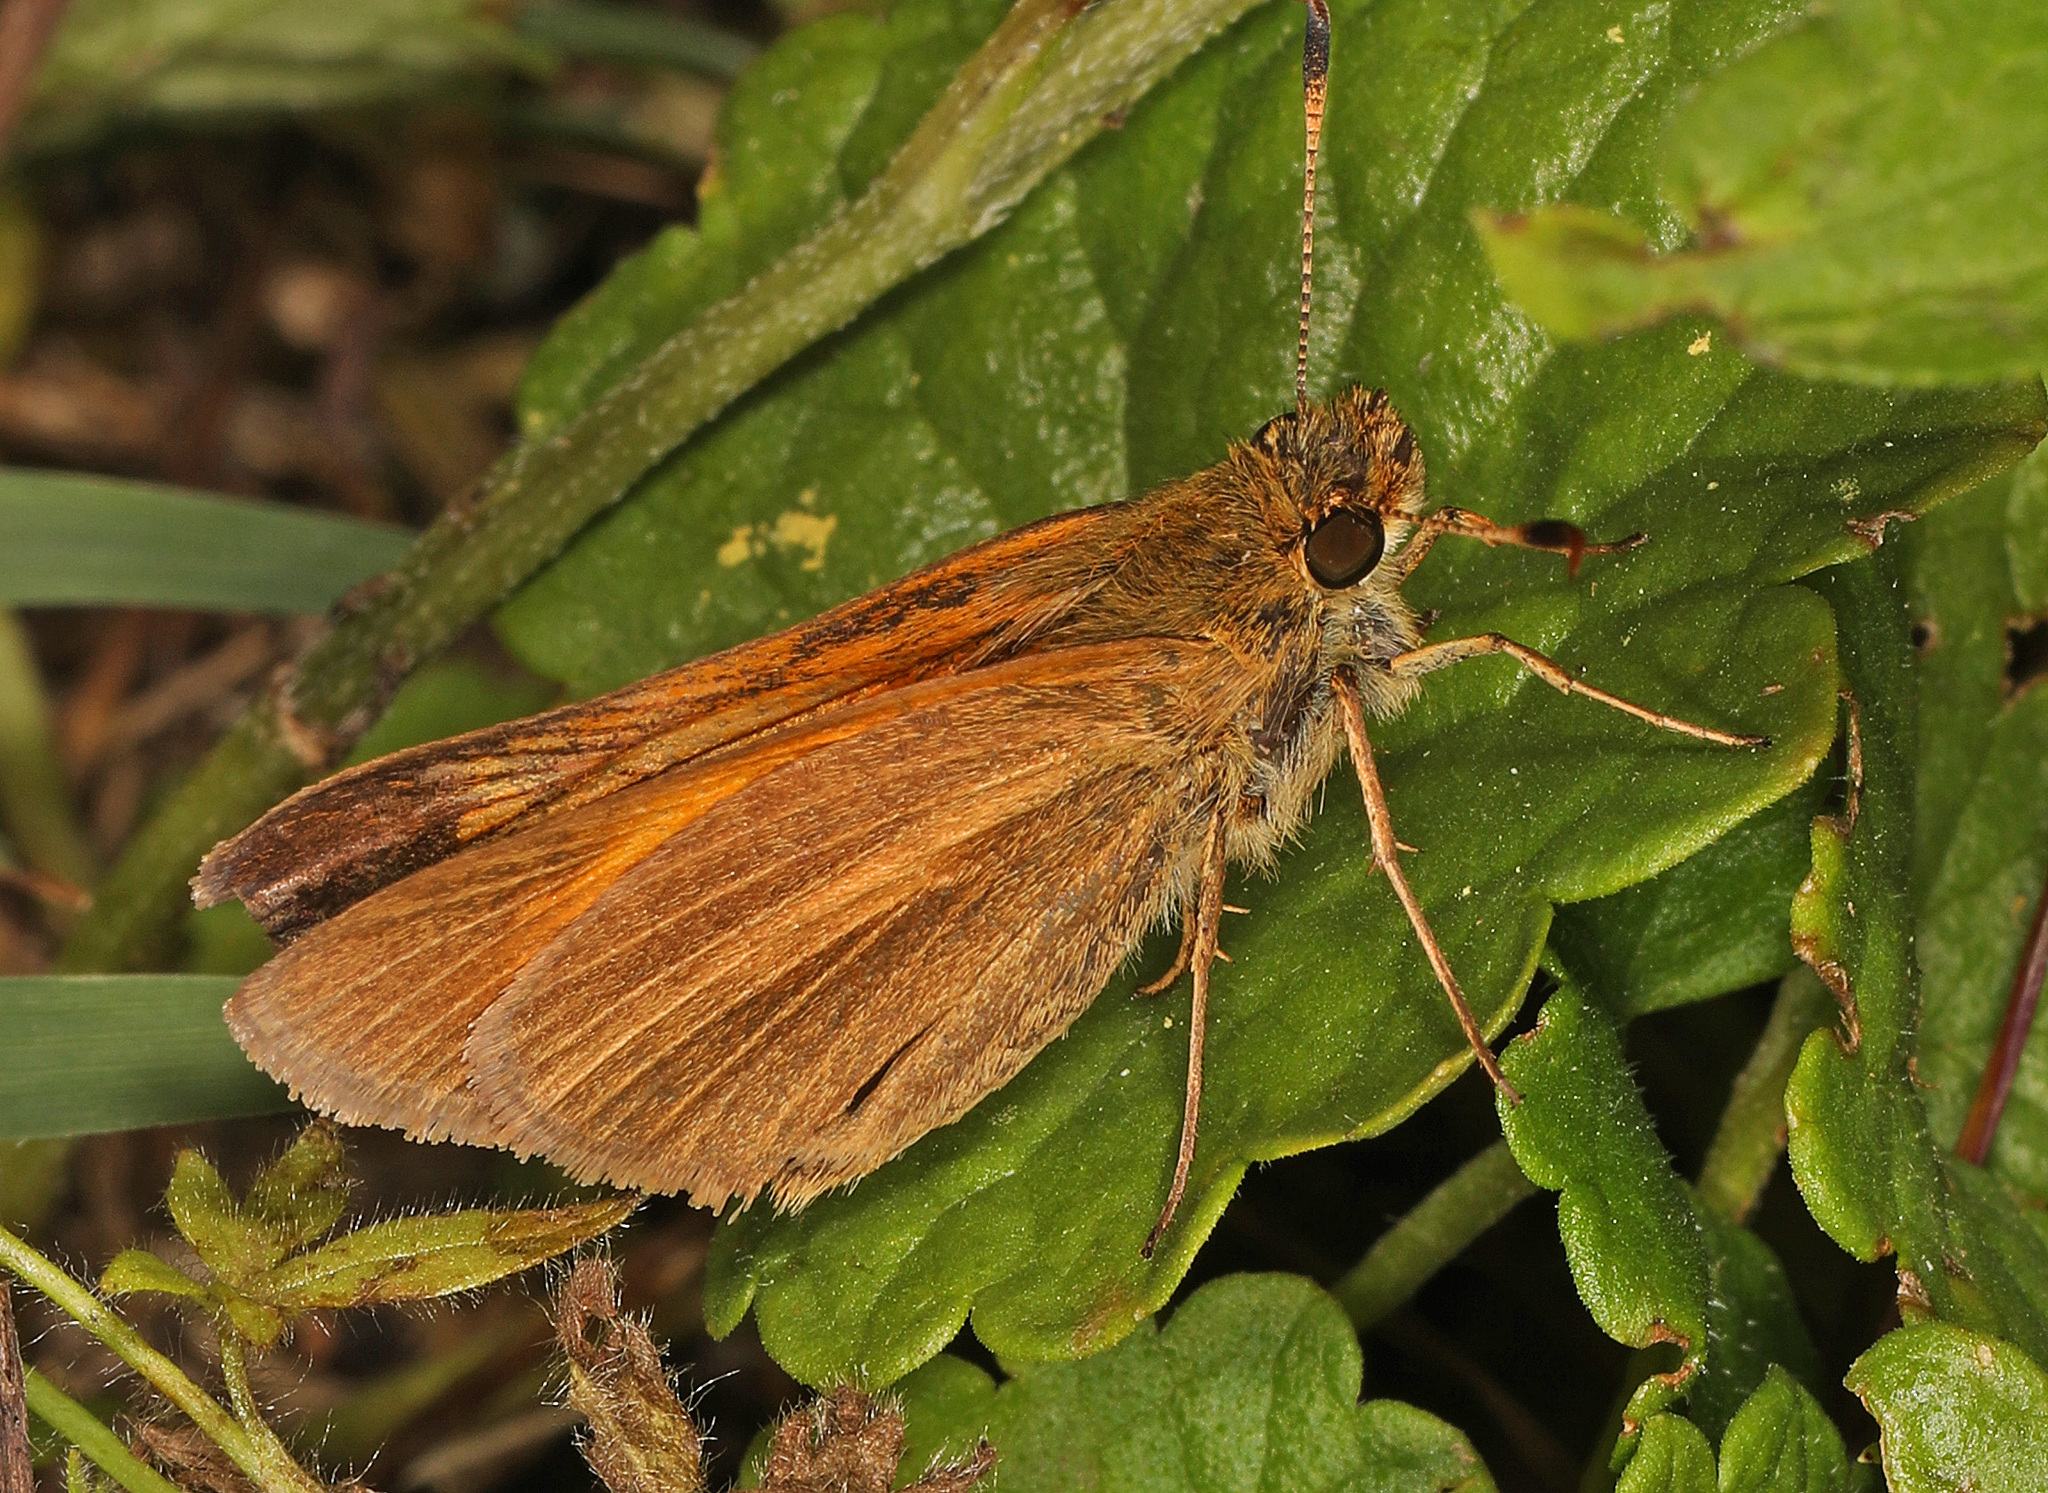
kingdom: Animalia
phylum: Arthropoda
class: Insecta
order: Lepidoptera
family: Hesperiidae
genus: Poanes
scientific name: Poanes aaroni
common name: Aaron's skipper
